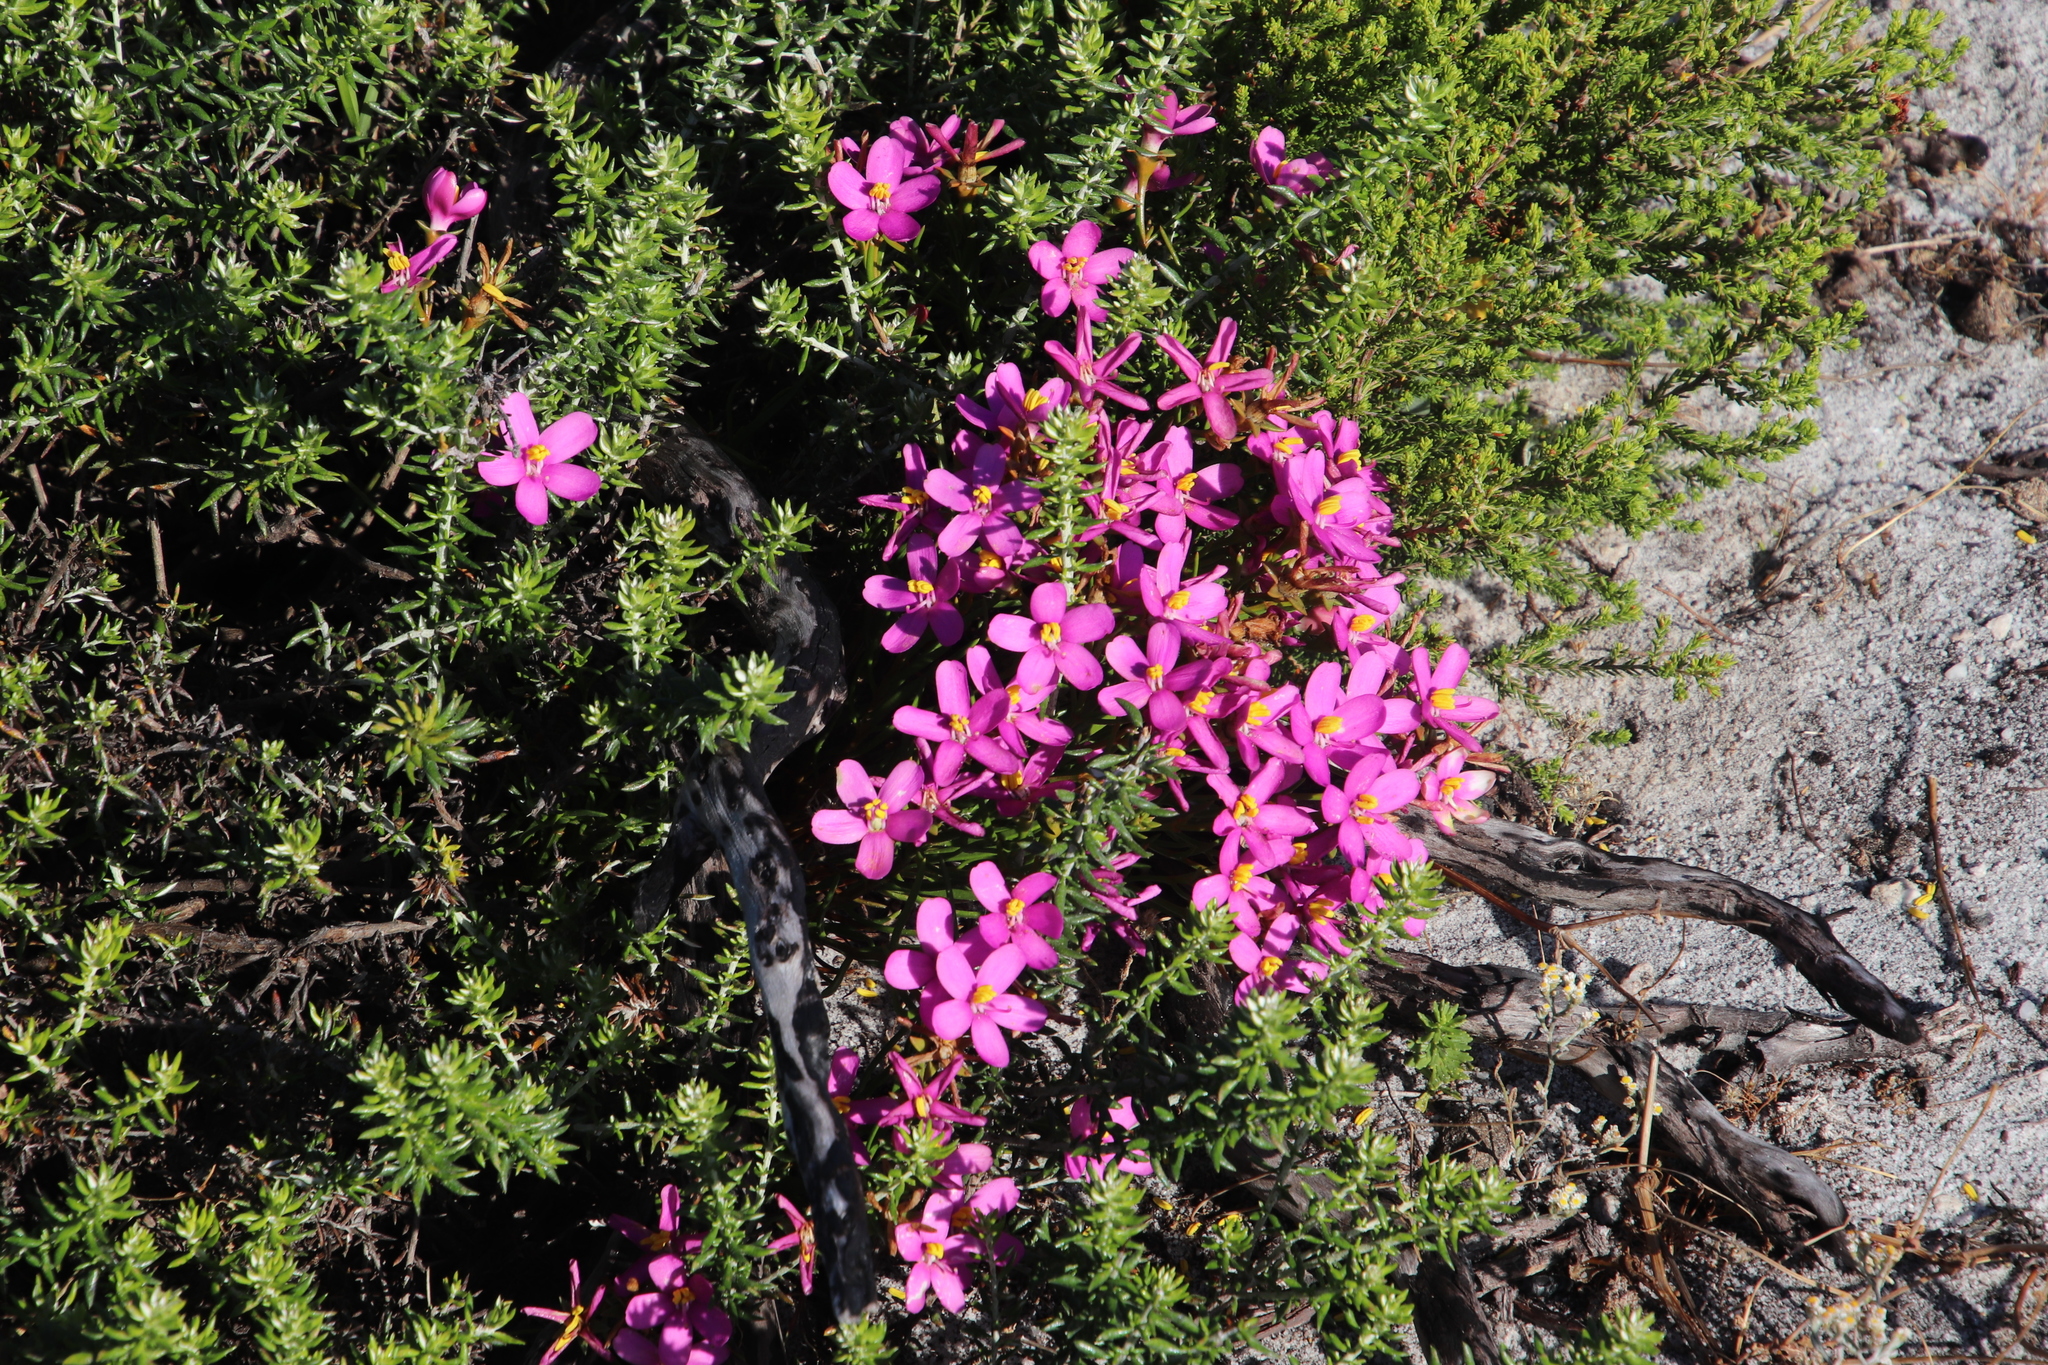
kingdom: Plantae
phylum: Tracheophyta
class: Magnoliopsida
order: Gentianales
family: Gentianaceae
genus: Chironia
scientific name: Chironia linoides
